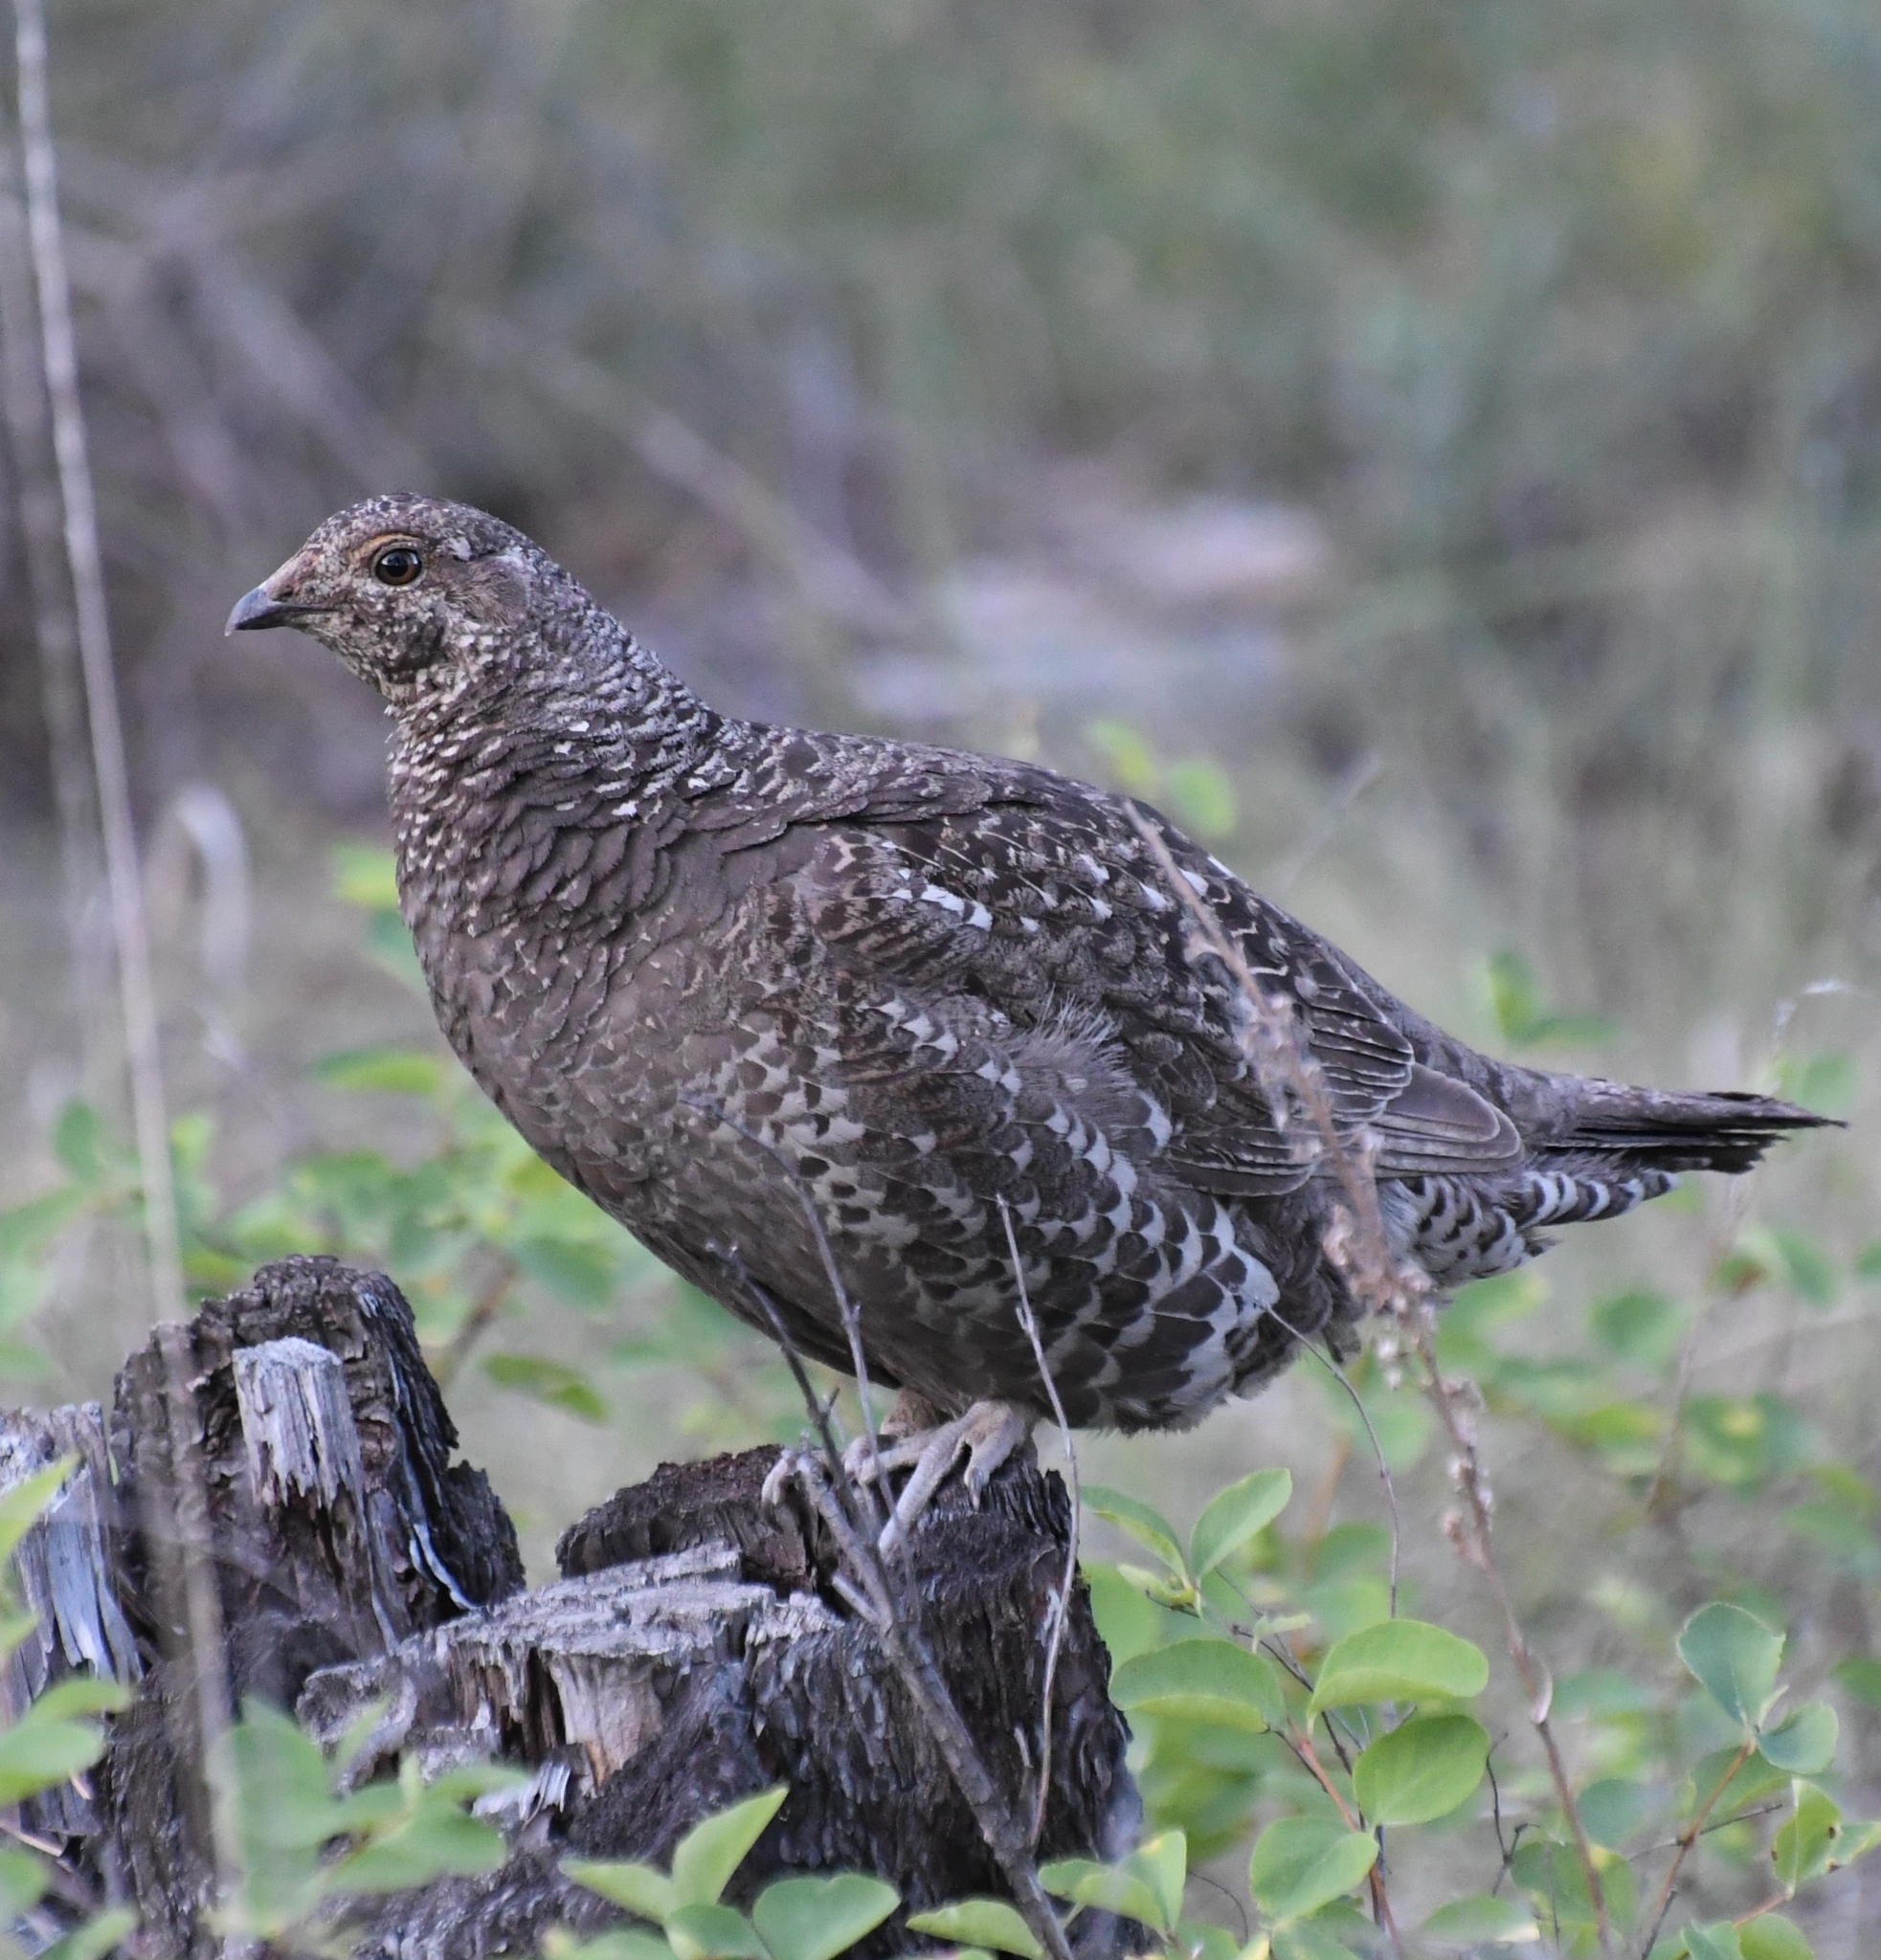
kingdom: Animalia
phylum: Chordata
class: Aves
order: Galliformes
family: Phasianidae
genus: Dendragapus
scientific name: Dendragapus obscurus
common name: Dusky grouse
